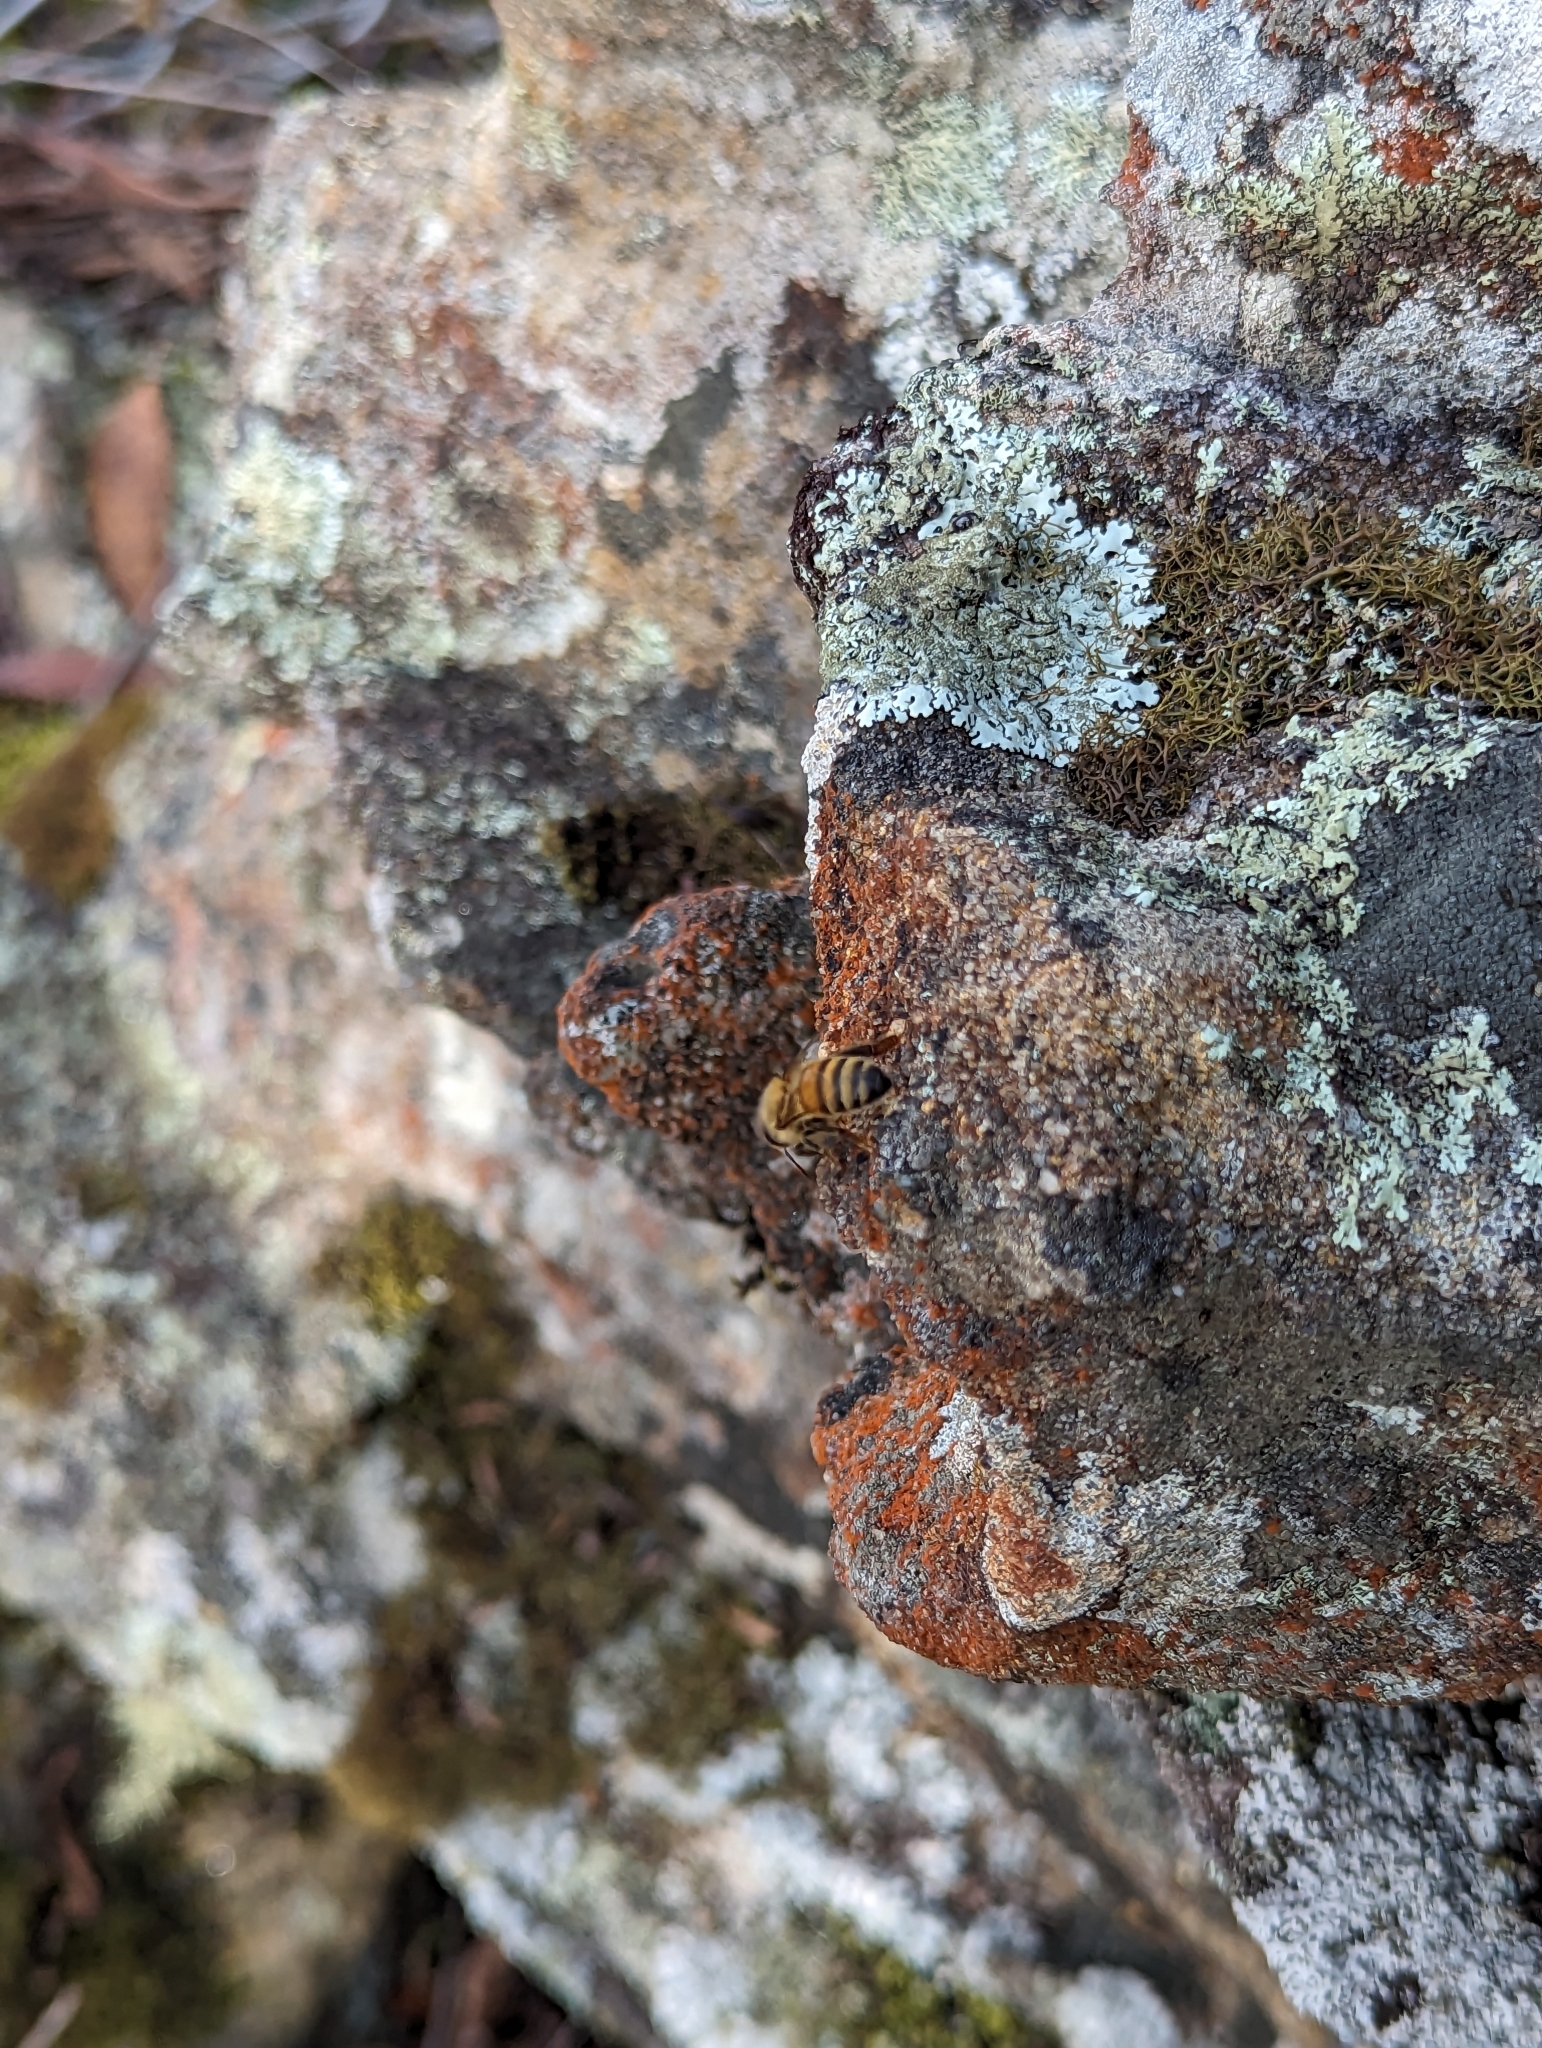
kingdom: Animalia
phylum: Arthropoda
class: Insecta
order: Hymenoptera
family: Apidae
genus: Apis
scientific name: Apis mellifera
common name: Honey bee
